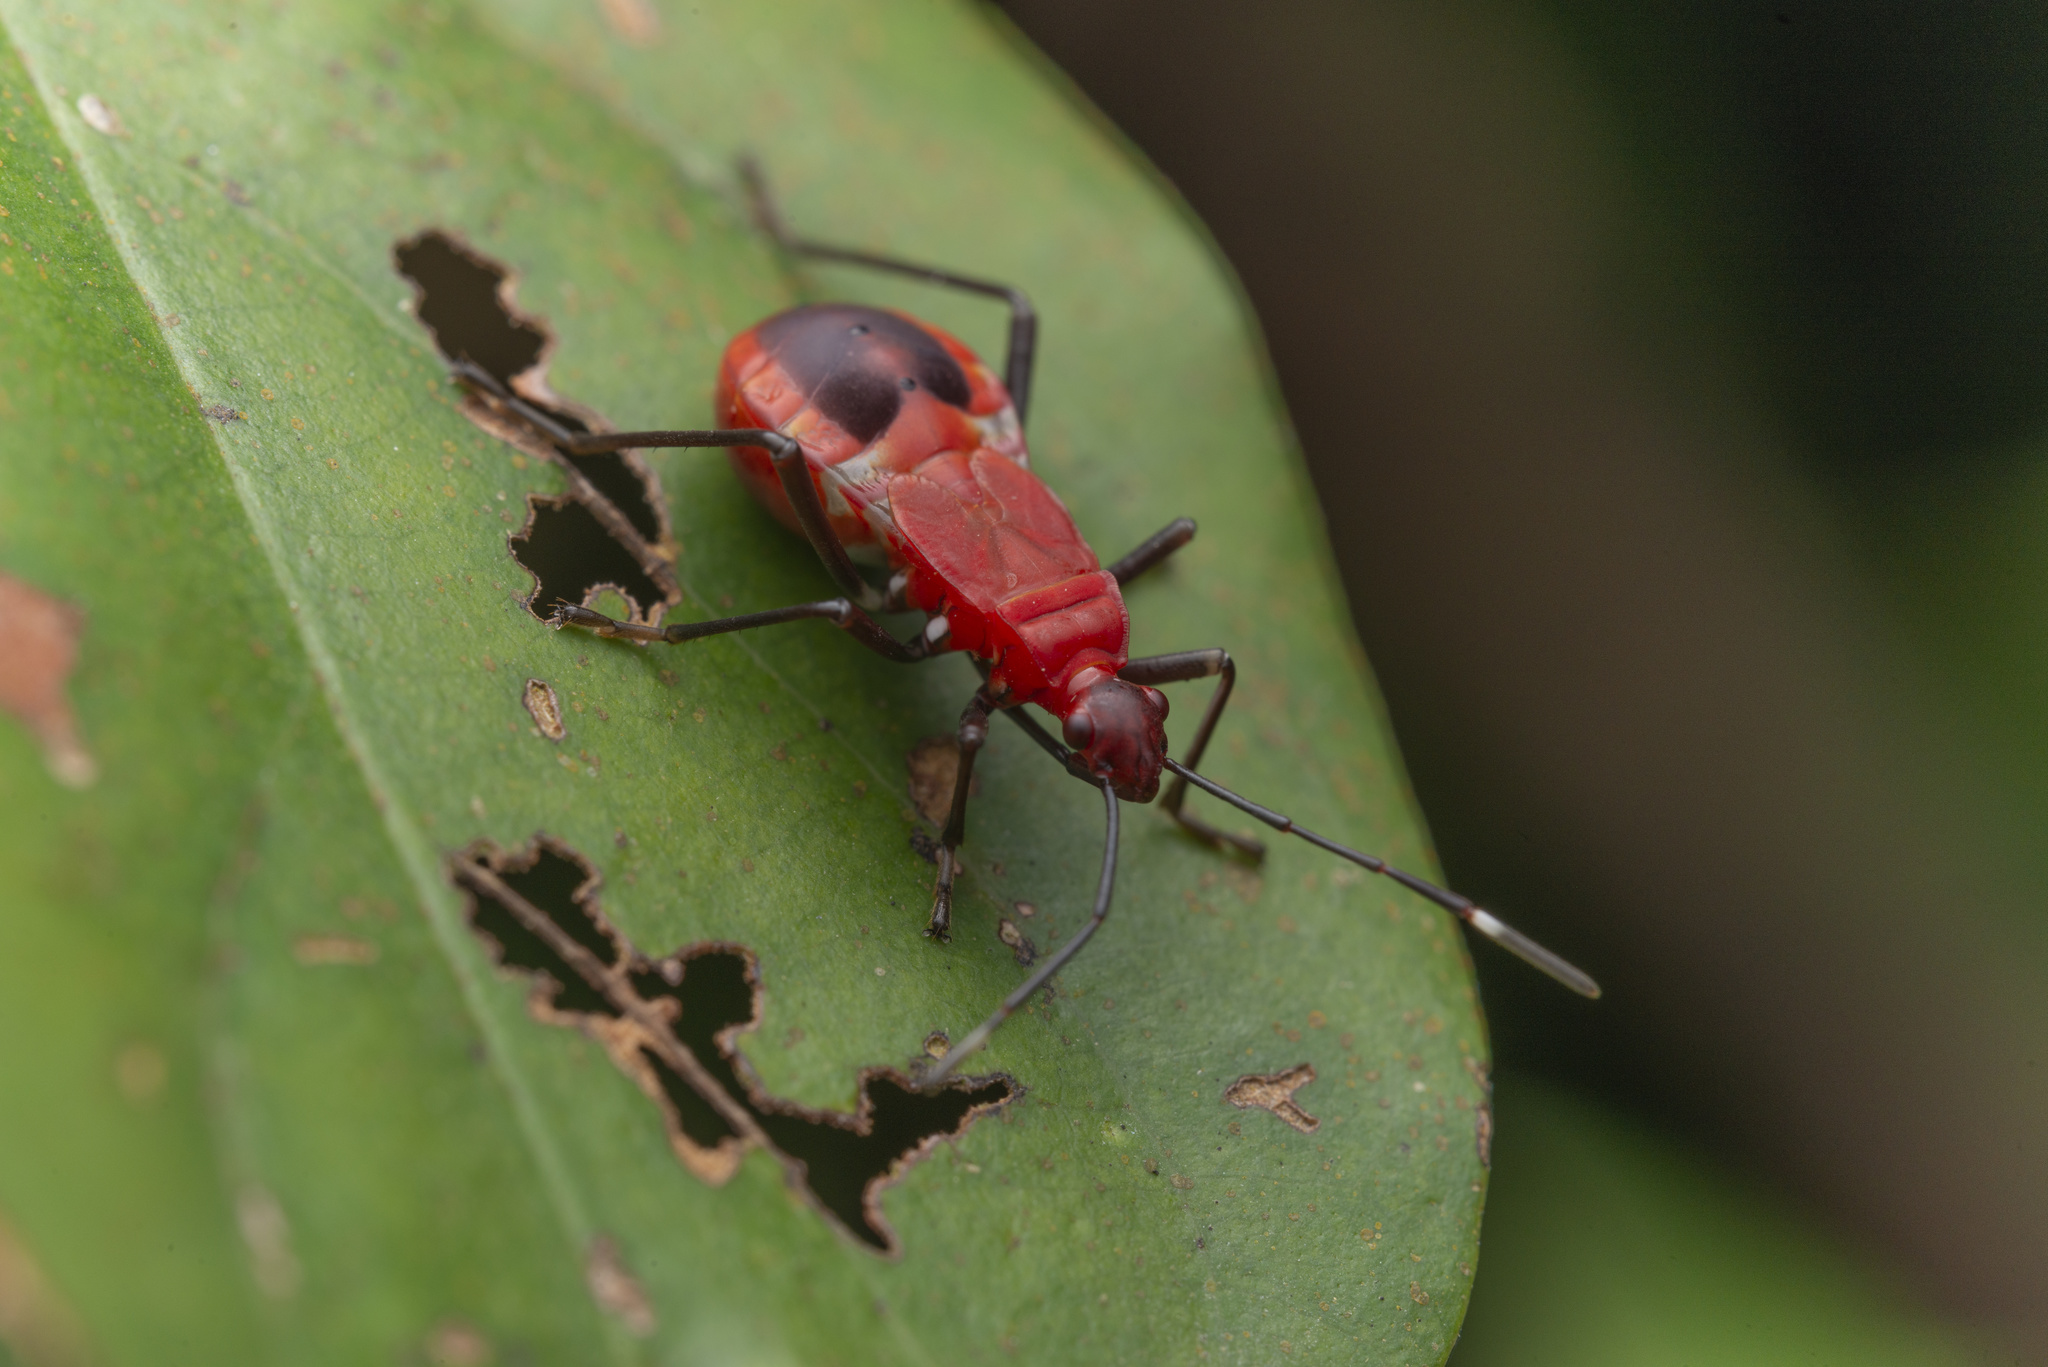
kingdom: Animalia
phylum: Arthropoda
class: Insecta
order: Hemiptera
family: Pyrrhocoridae
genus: Dindymus
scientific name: Dindymus
